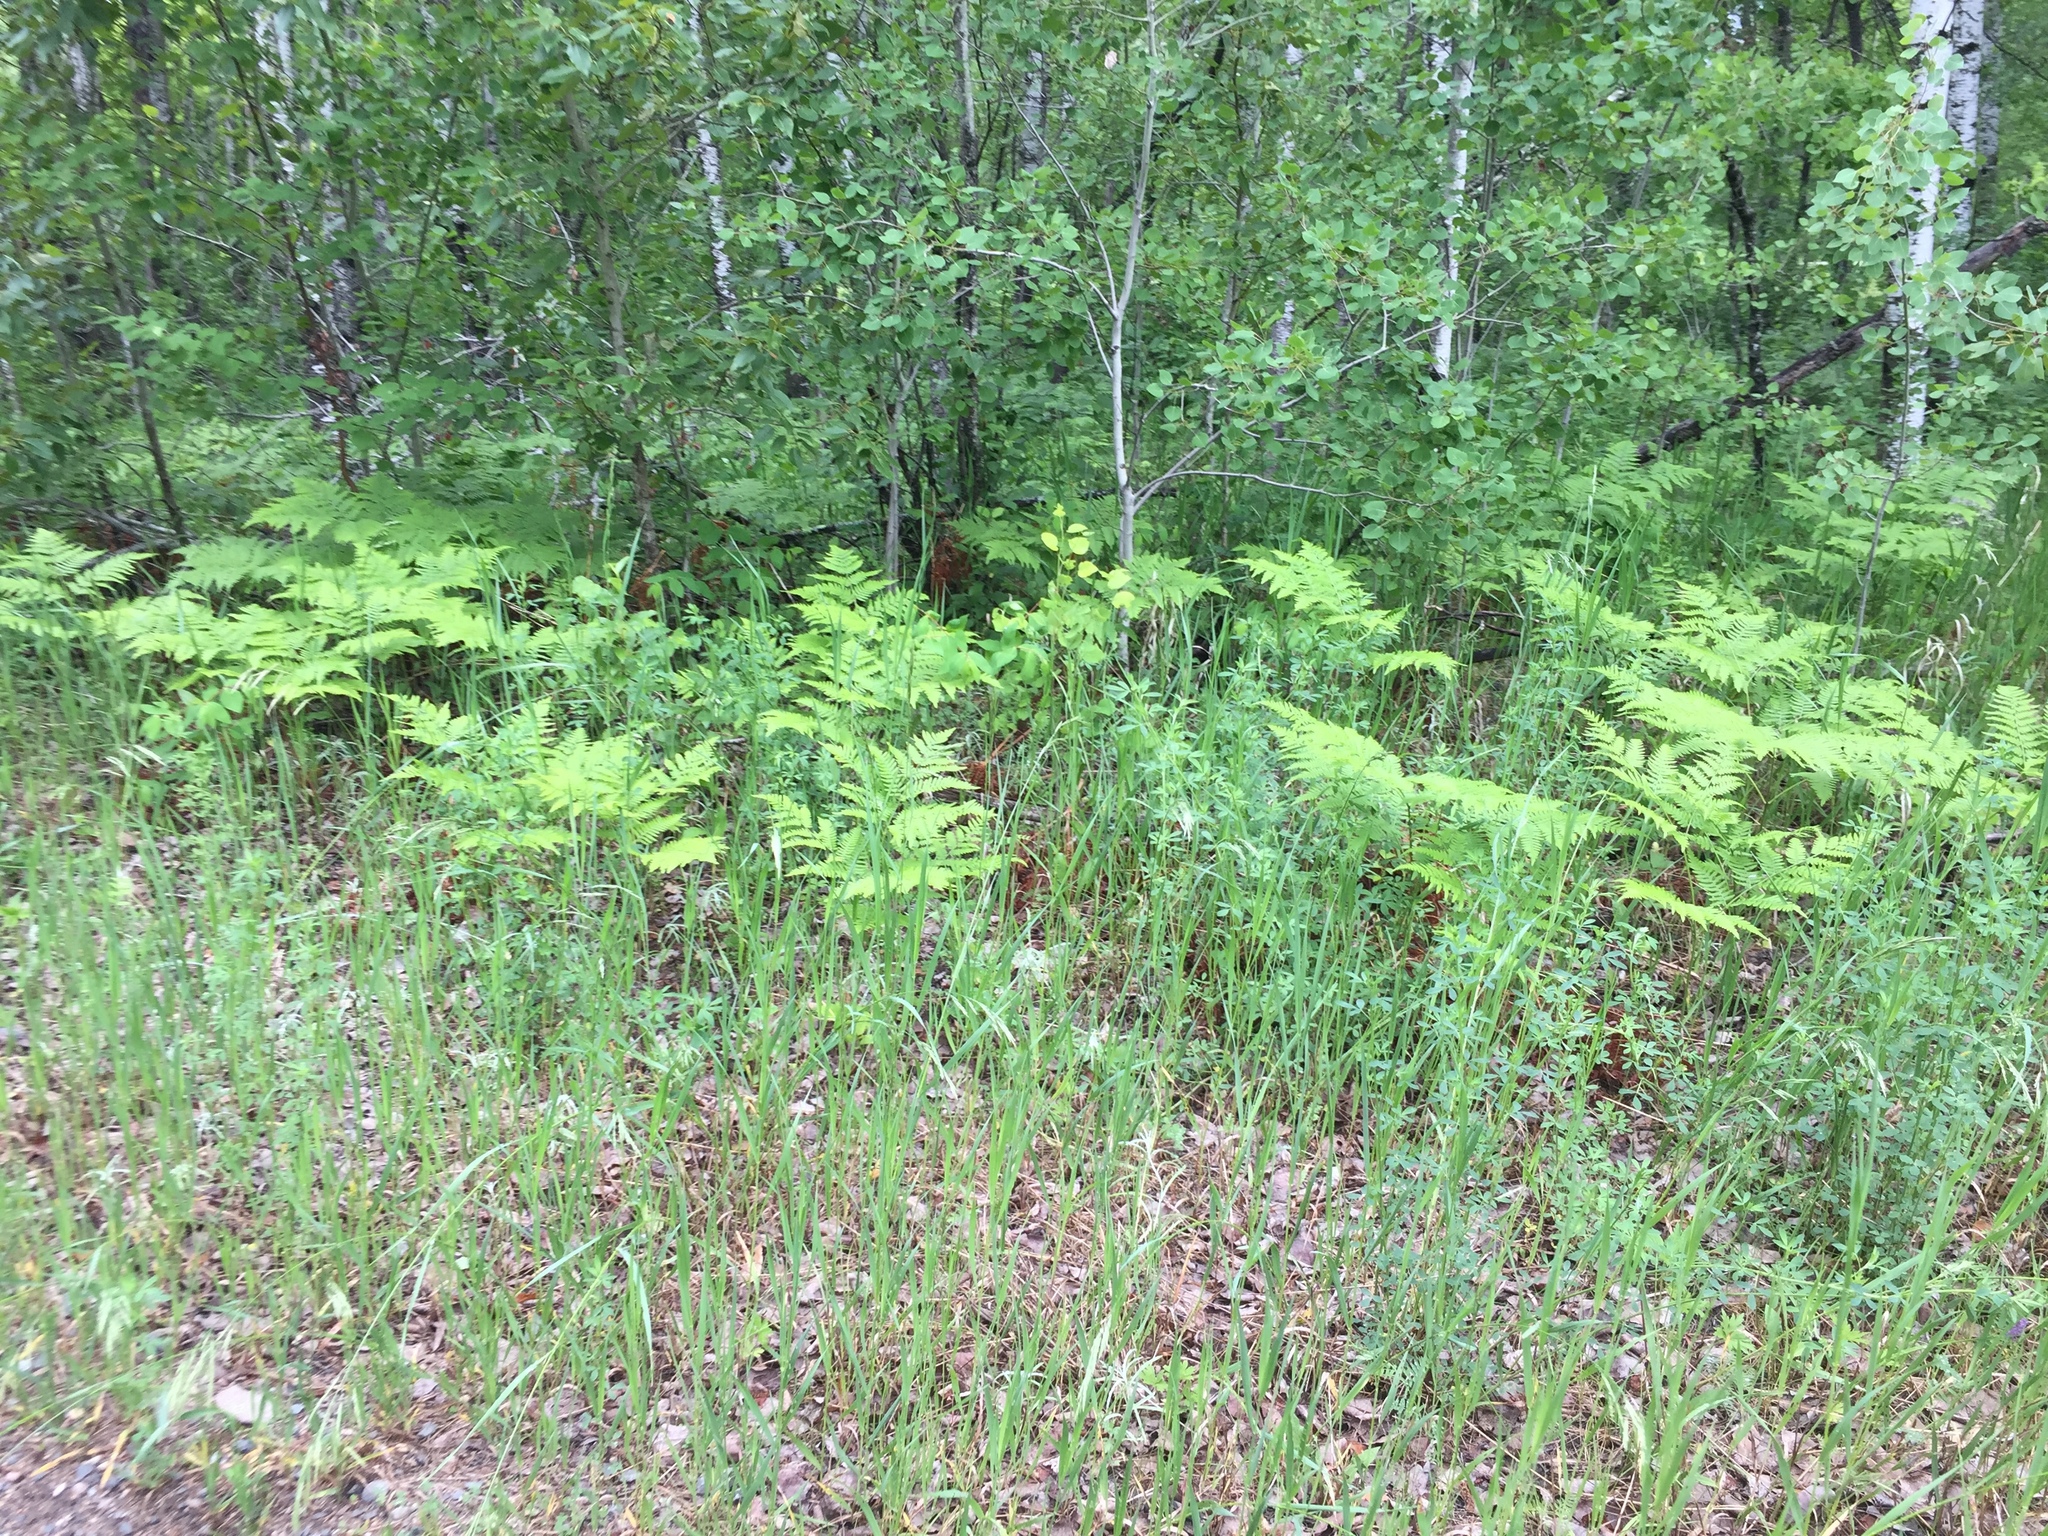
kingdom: Plantae
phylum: Tracheophyta
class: Polypodiopsida
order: Polypodiales
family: Dennstaedtiaceae
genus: Pteridium
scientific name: Pteridium aquilinum
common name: Bracken
